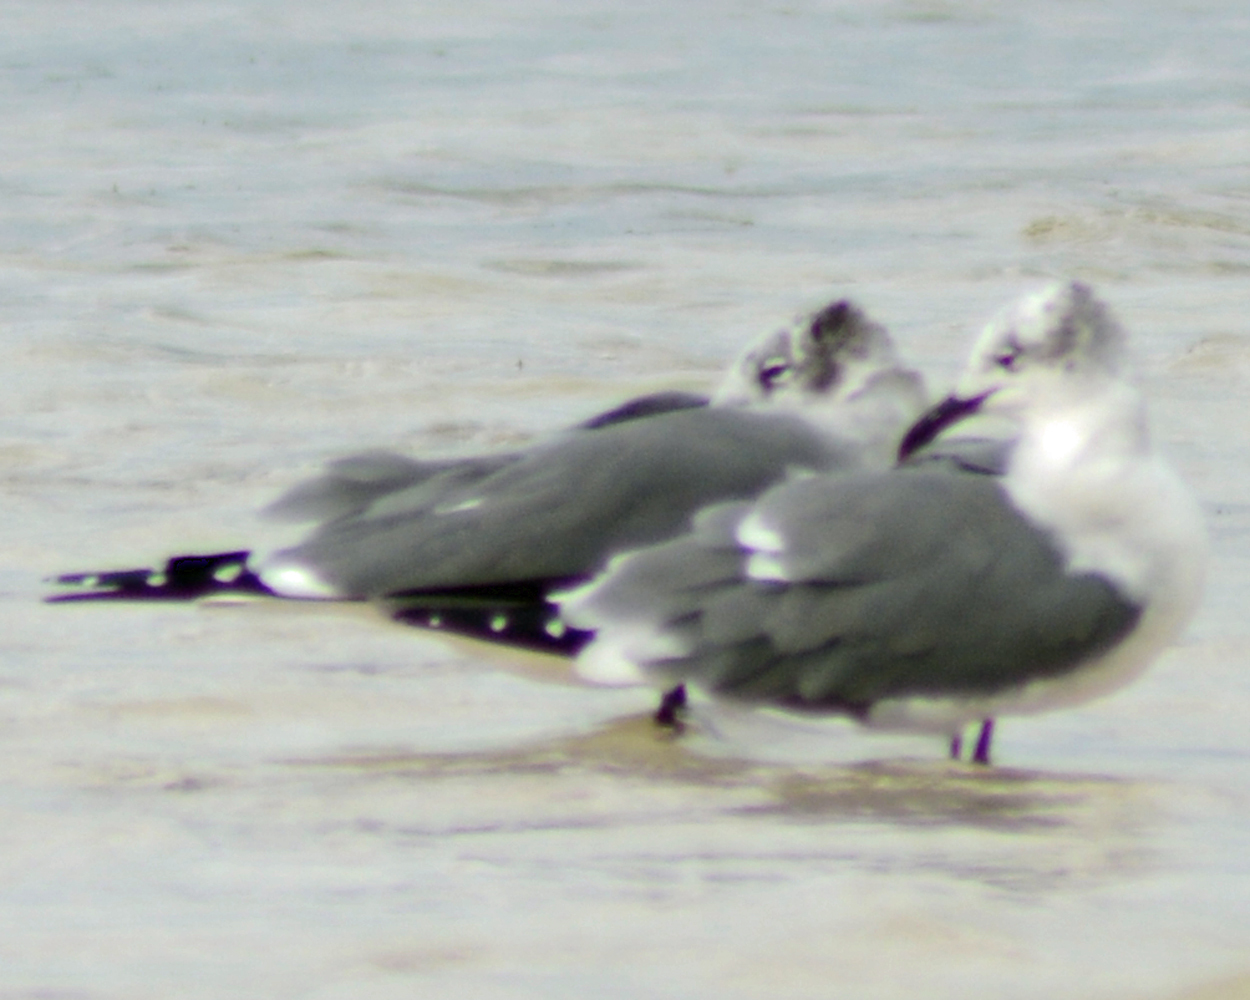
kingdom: Animalia
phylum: Chordata
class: Aves
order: Charadriiformes
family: Laridae
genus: Leucophaeus
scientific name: Leucophaeus atricilla
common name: Laughing gull
